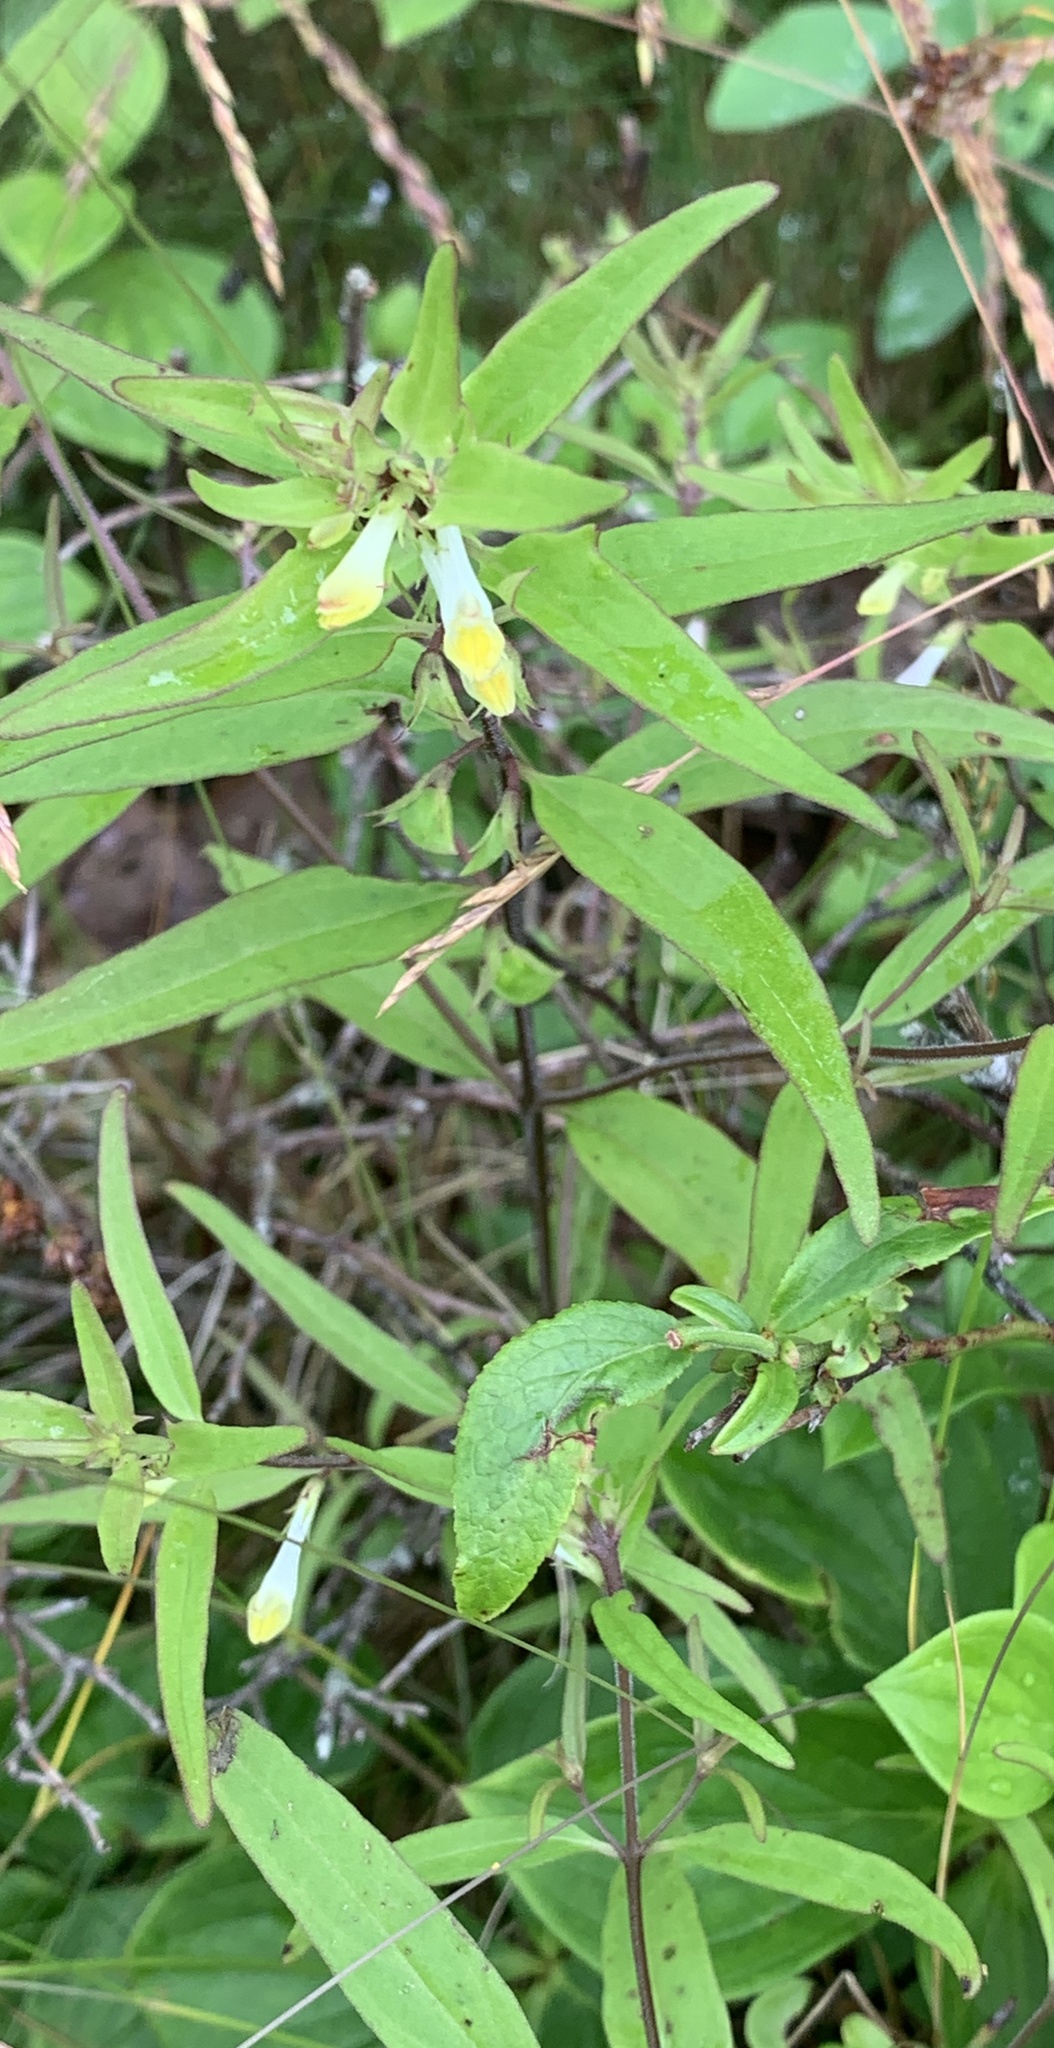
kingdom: Plantae
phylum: Tracheophyta
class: Magnoliopsida
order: Lamiales
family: Orobanchaceae
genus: Melampyrum
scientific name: Melampyrum lineare
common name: American cow-wheat
